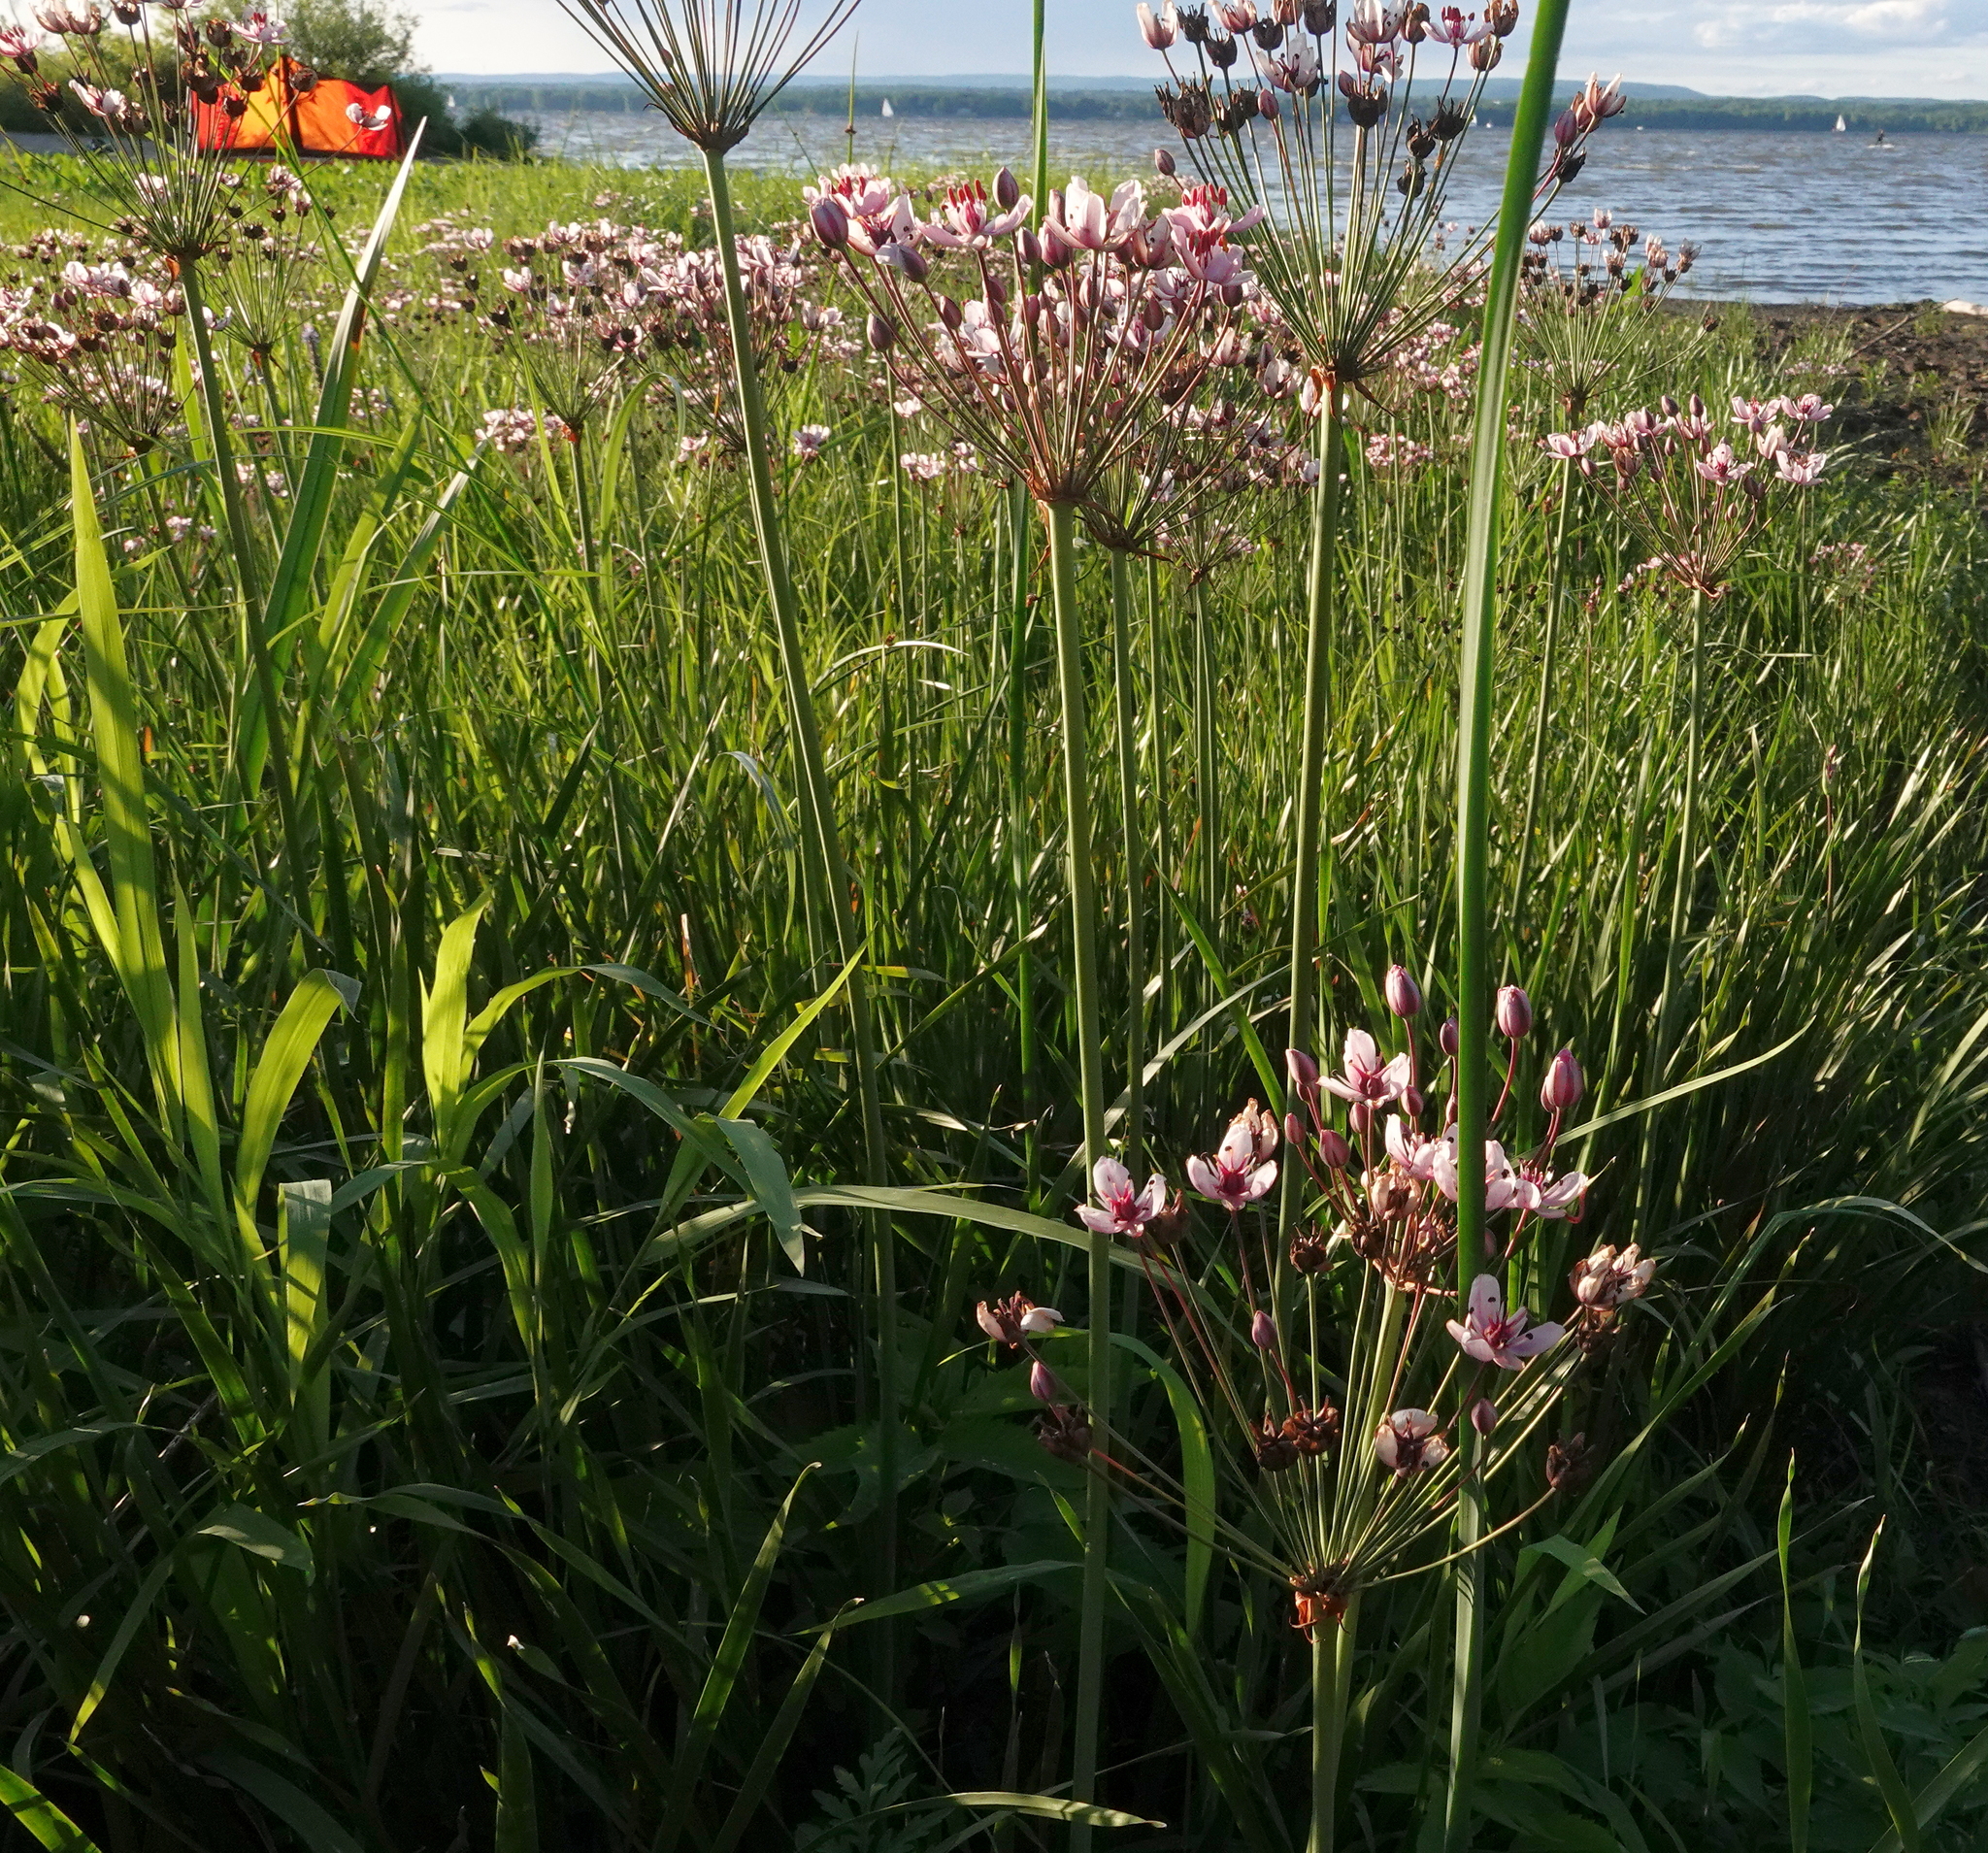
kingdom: Plantae
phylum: Tracheophyta
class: Liliopsida
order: Alismatales
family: Butomaceae
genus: Butomus
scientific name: Butomus umbellatus
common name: Flowering-rush
